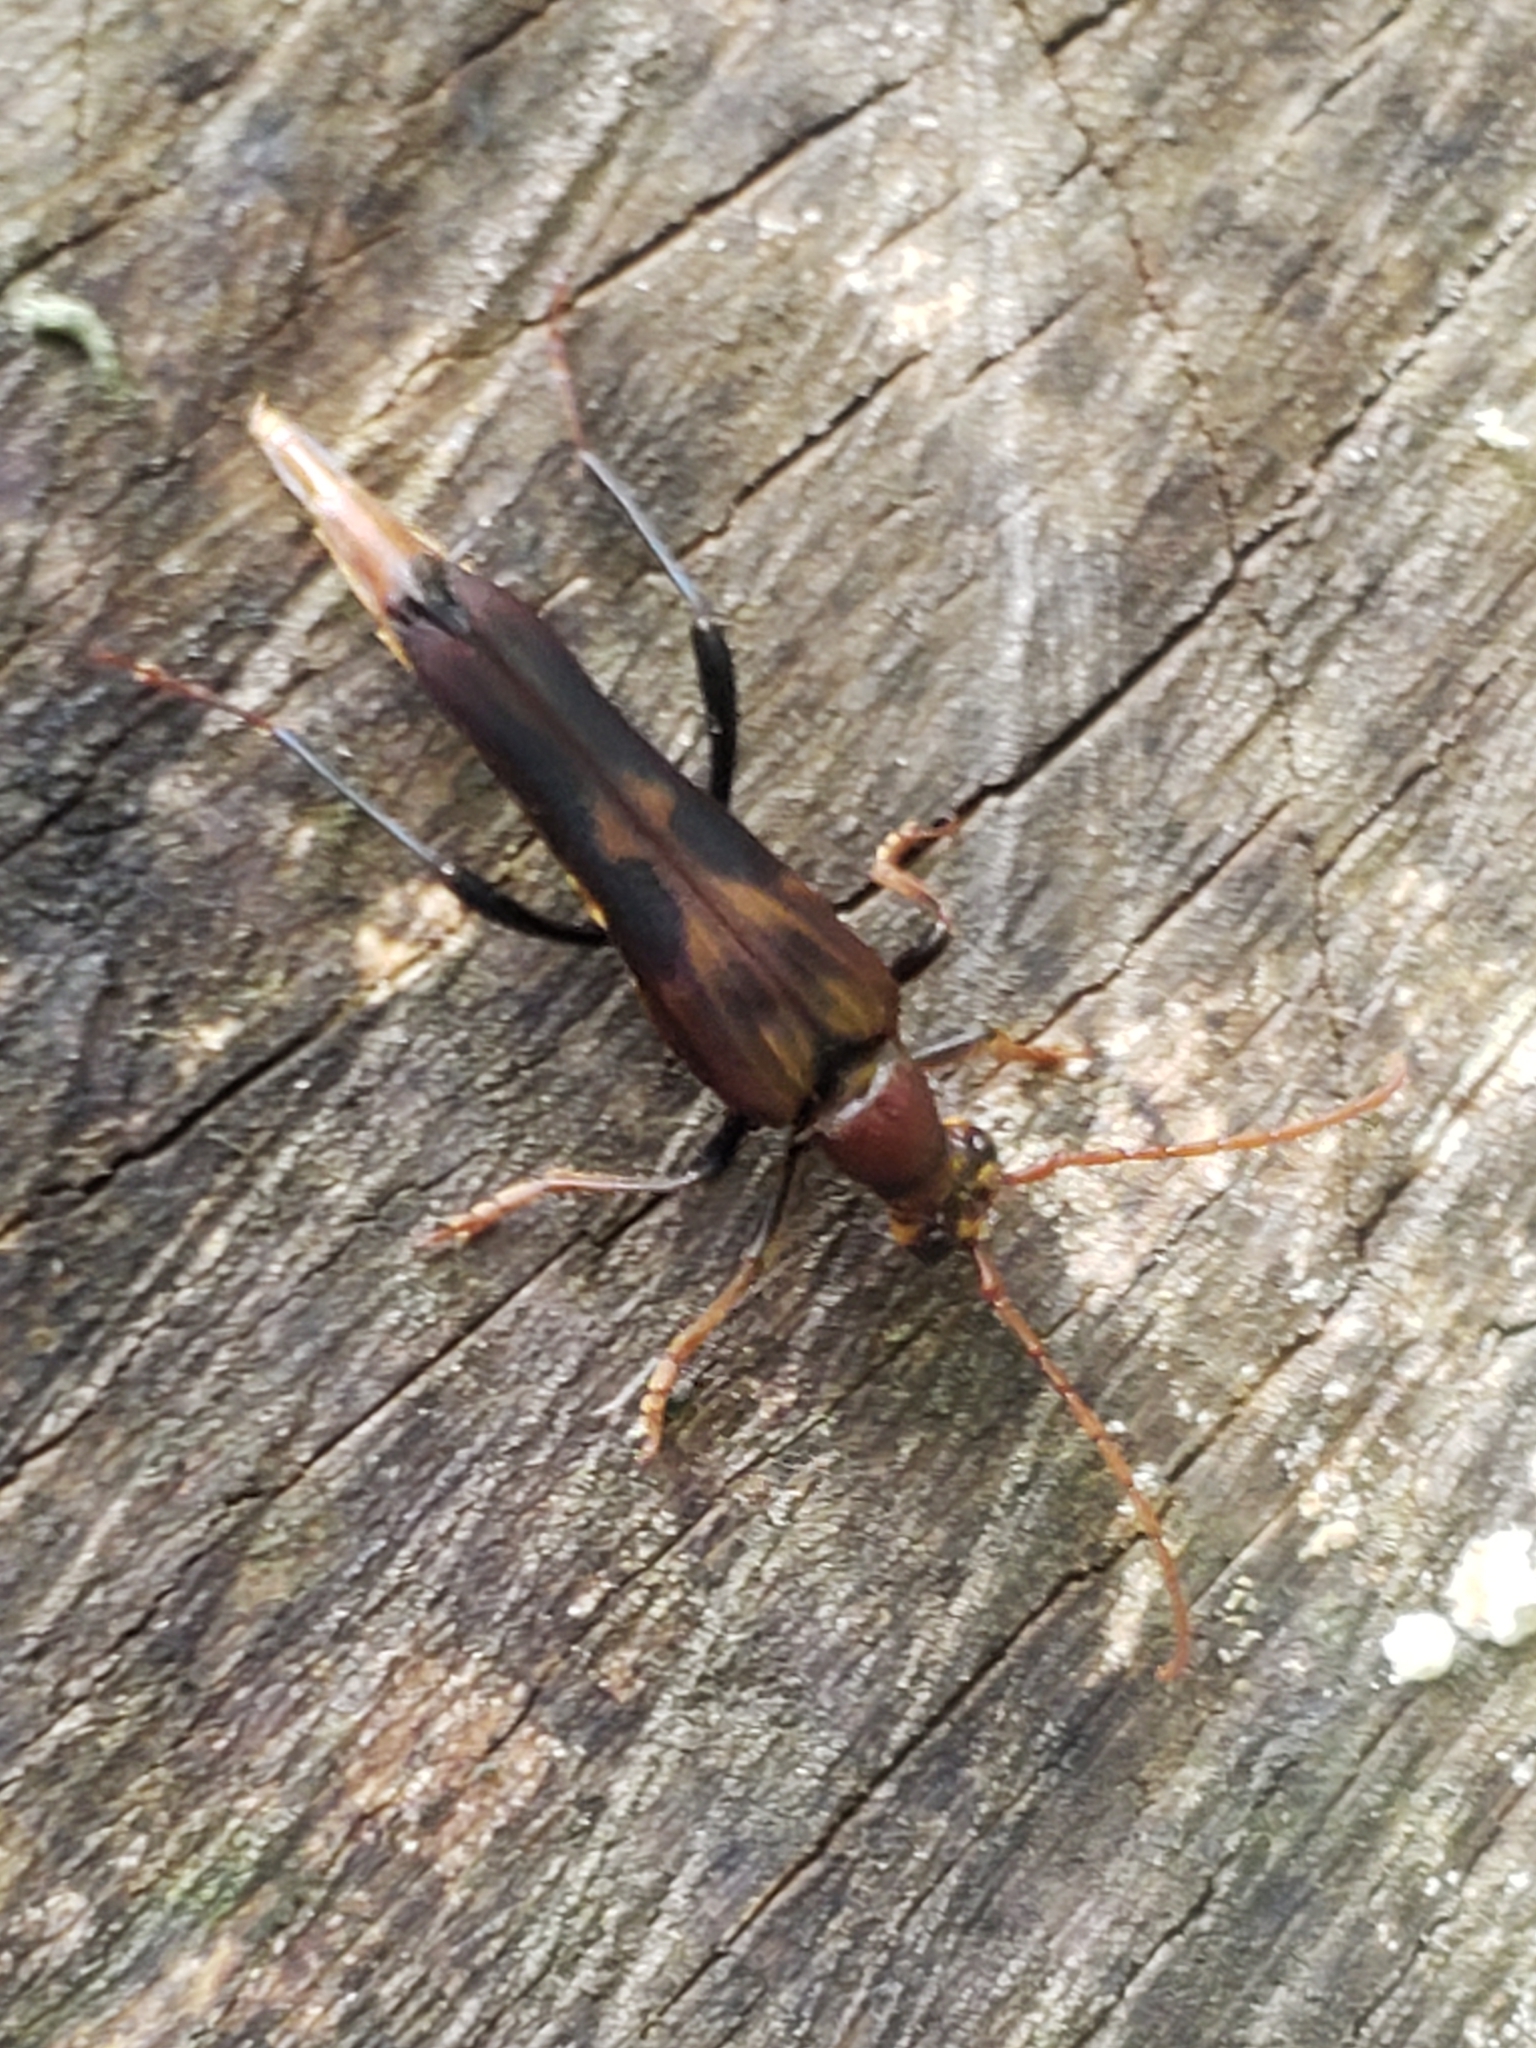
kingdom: Animalia
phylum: Arthropoda
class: Insecta
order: Coleoptera
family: Cerambycidae
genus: Bellamira
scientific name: Bellamira scalaris
